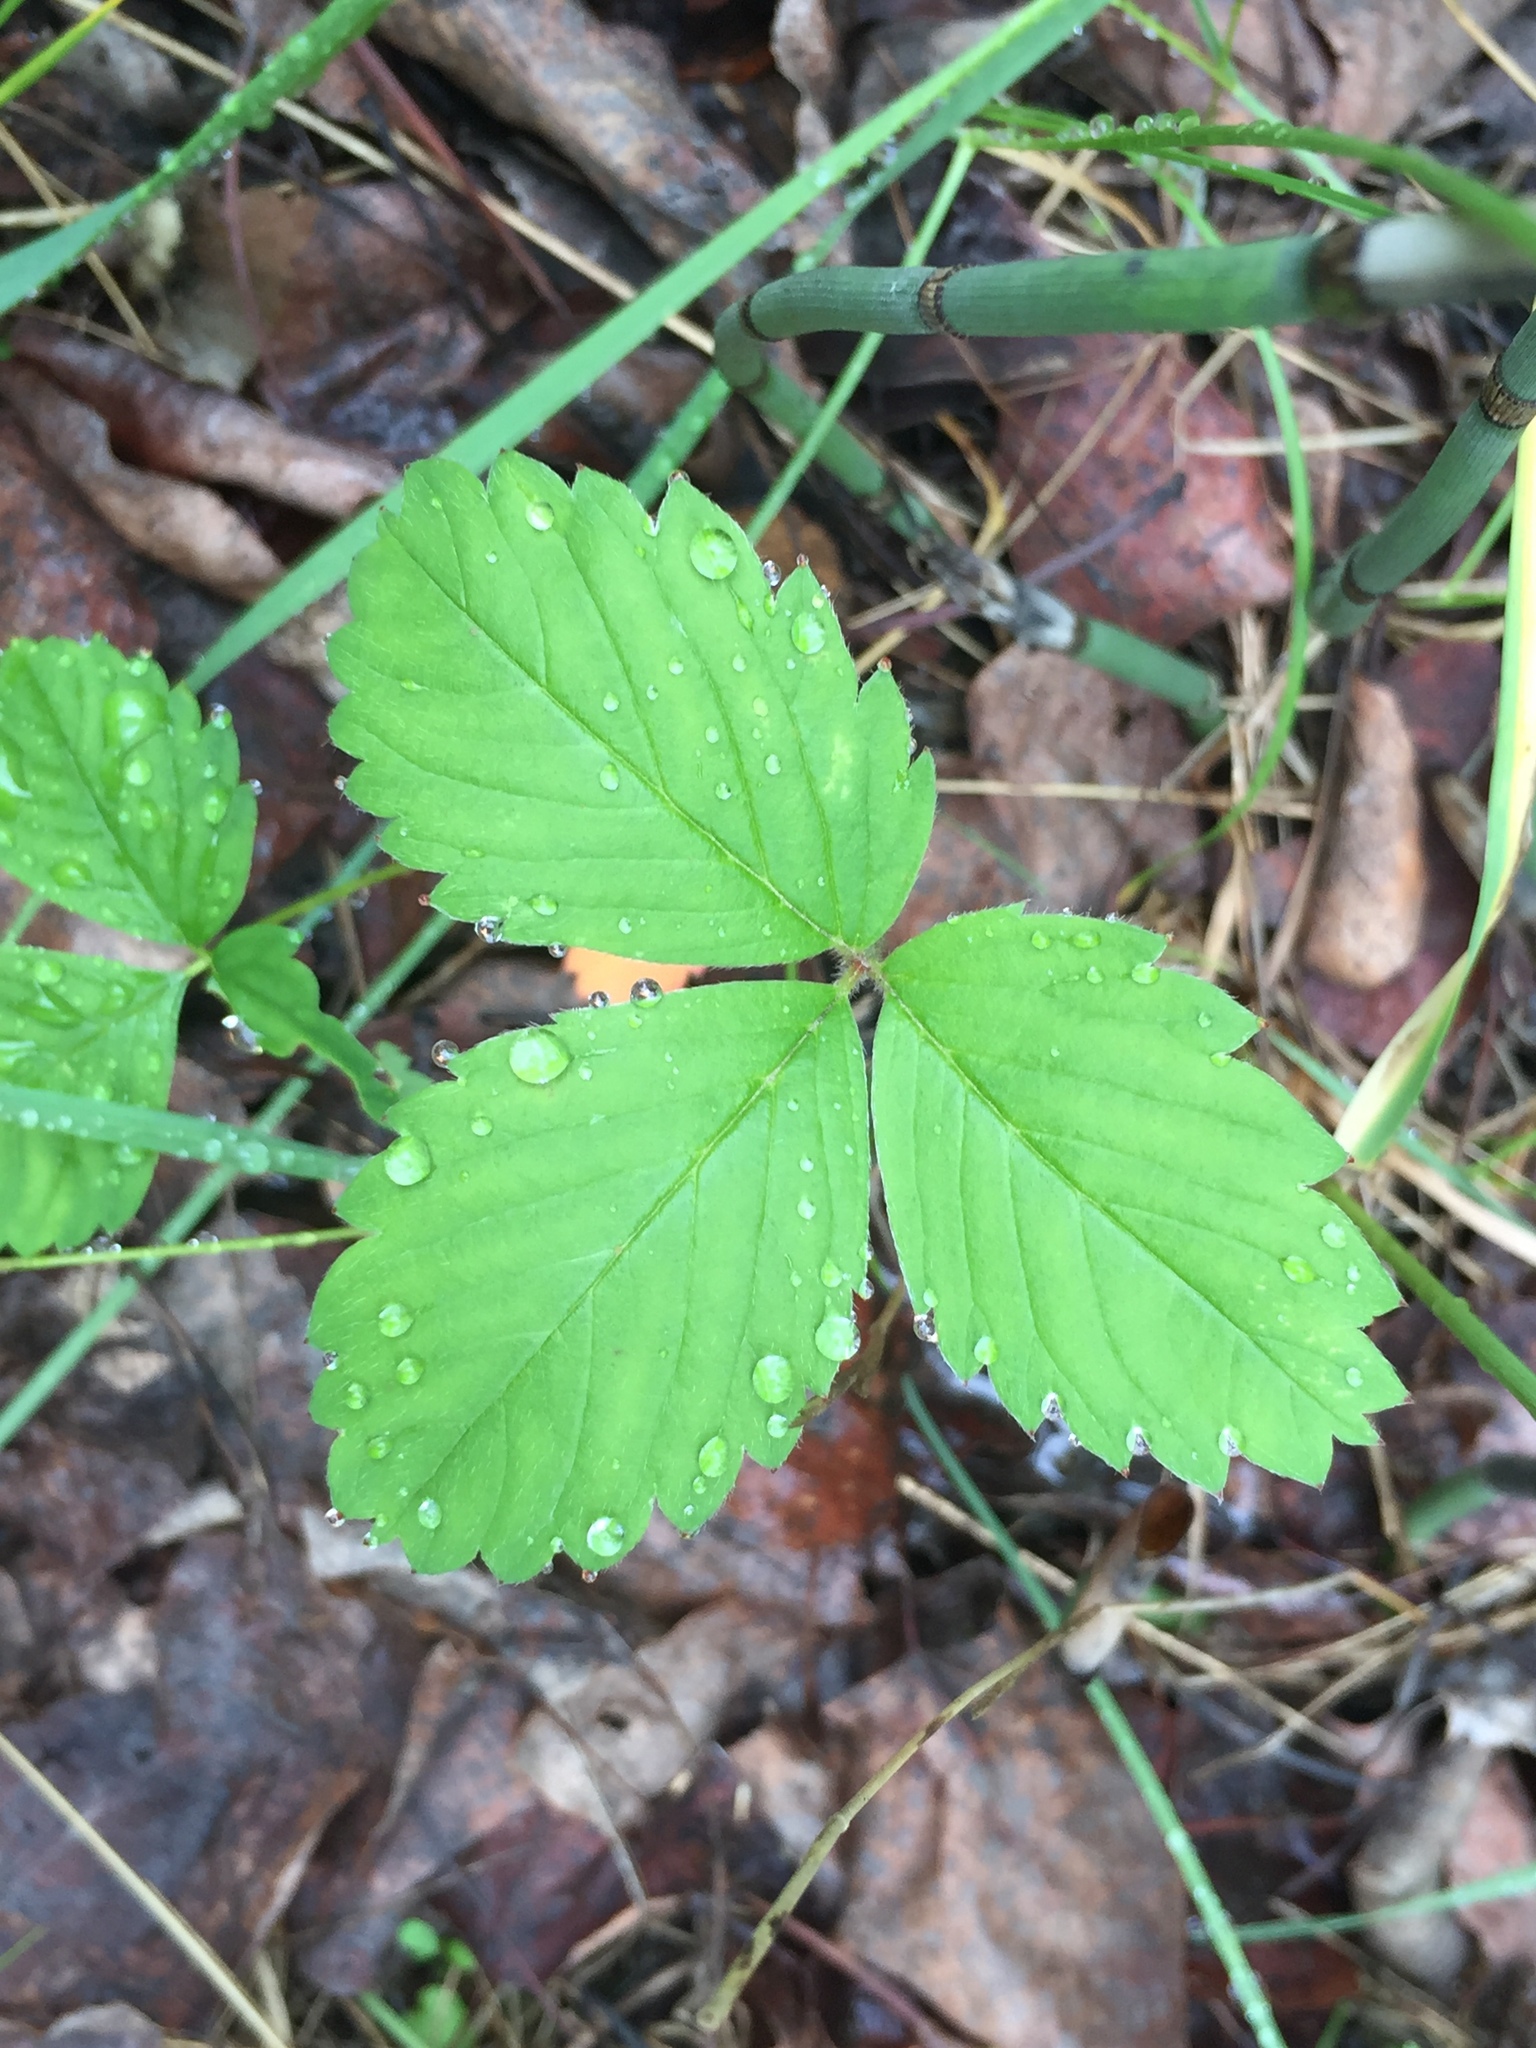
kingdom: Plantae
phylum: Tracheophyta
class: Magnoliopsida
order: Rosales
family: Rosaceae
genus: Fragaria
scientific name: Fragaria virginiana
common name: Thickleaved wild strawberry
